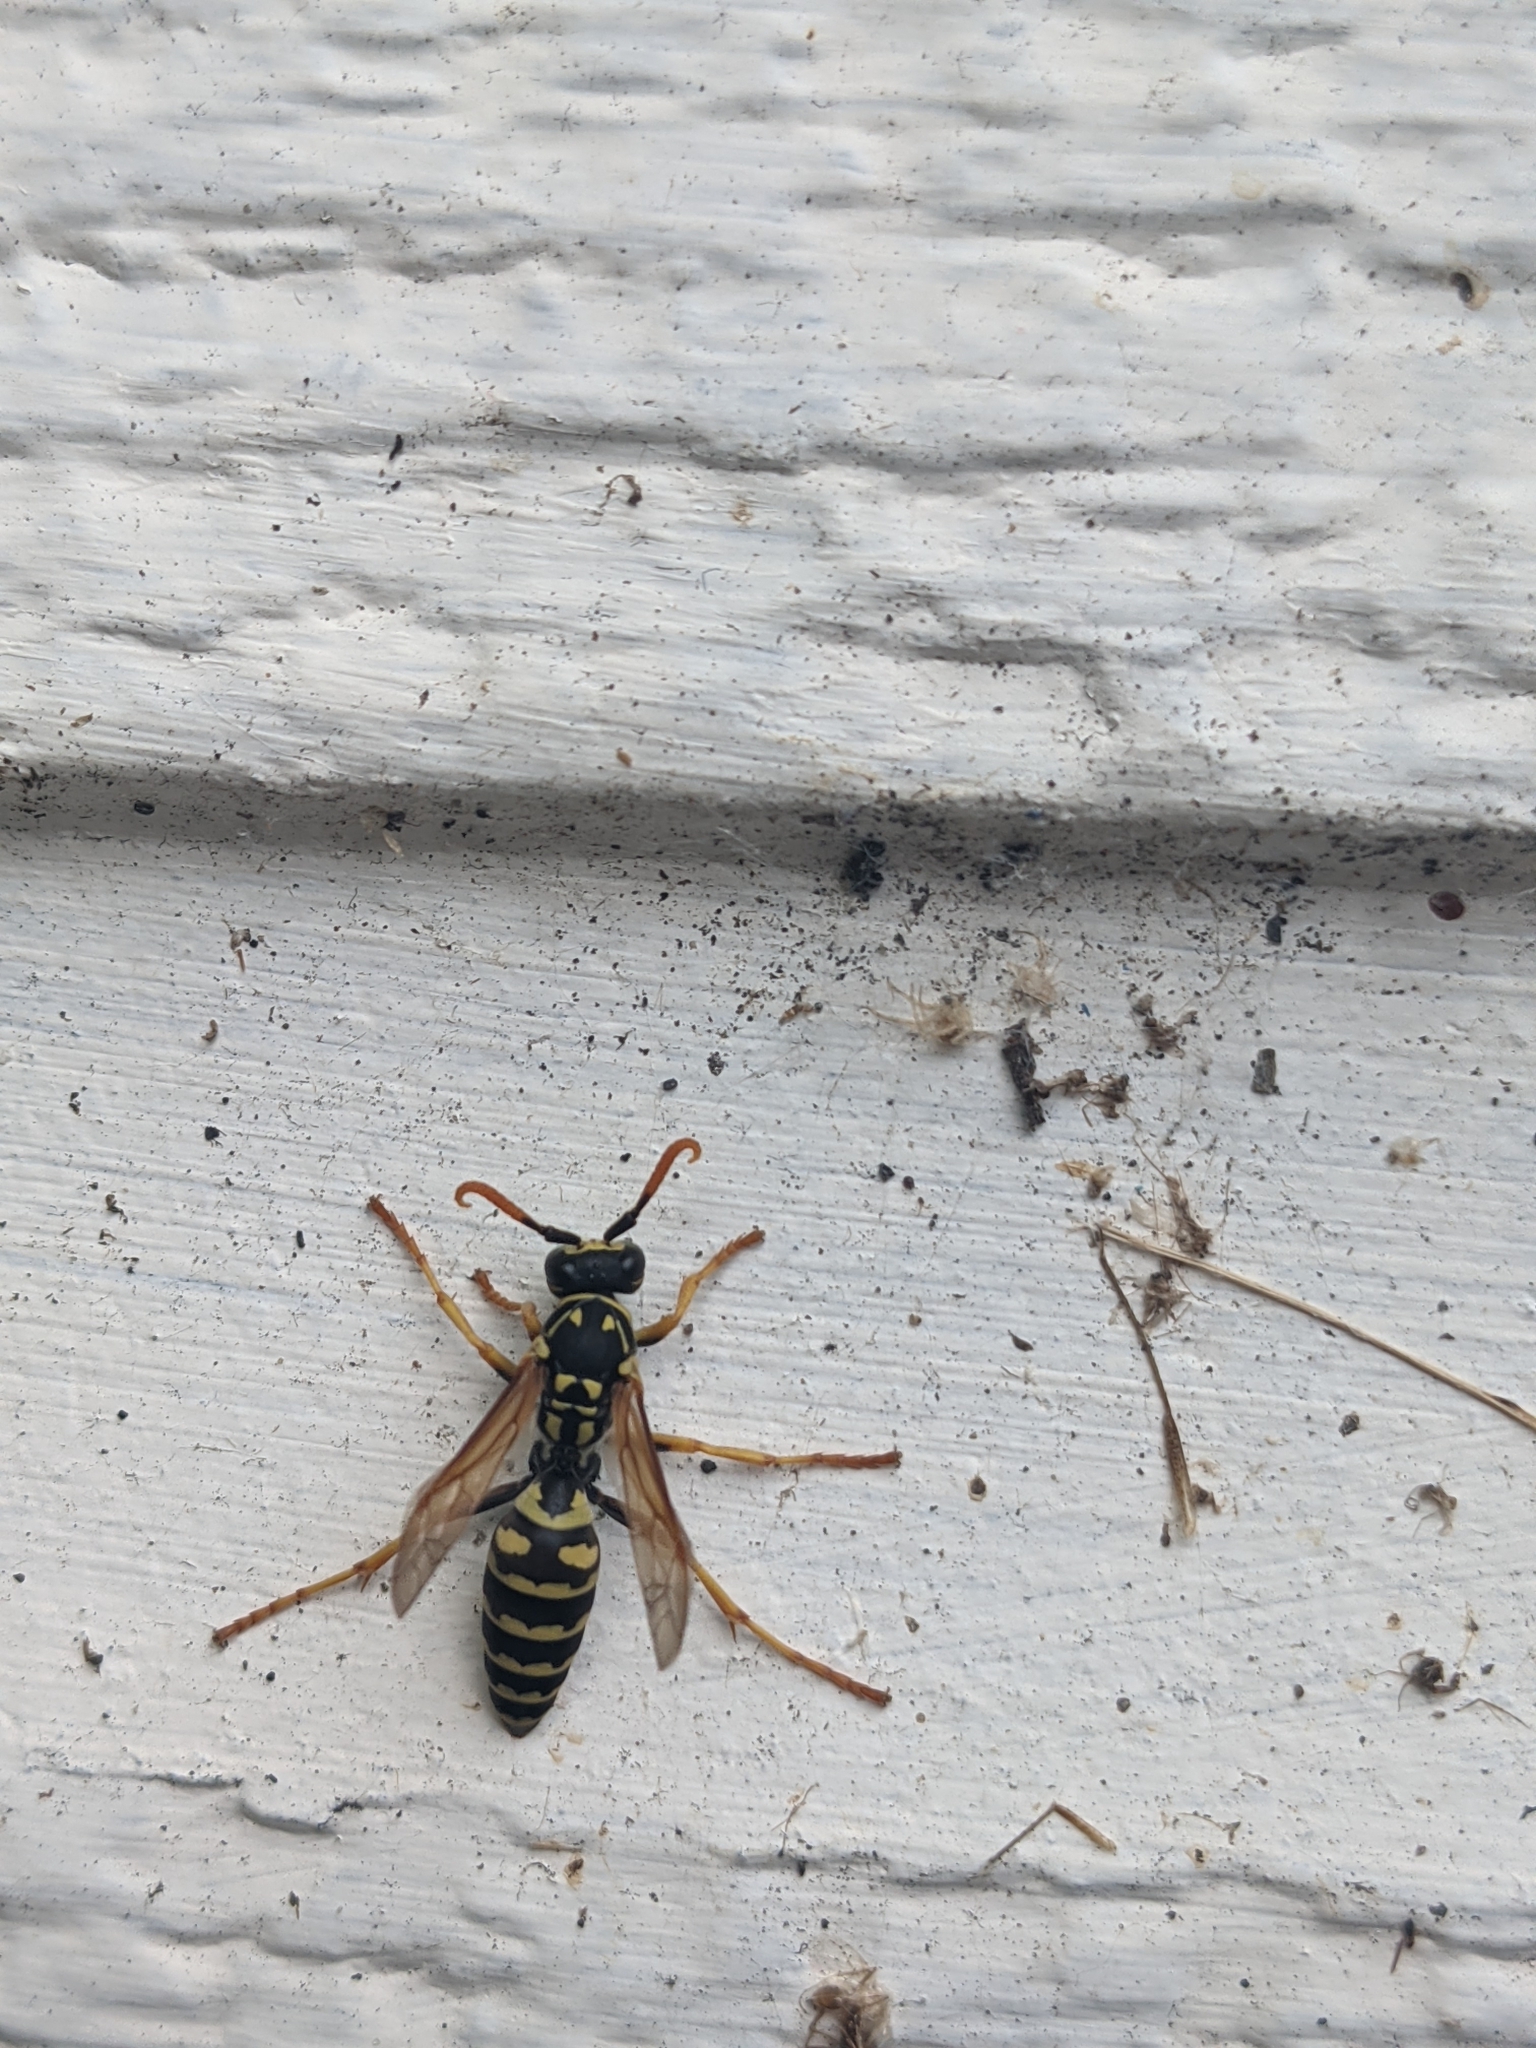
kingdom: Animalia
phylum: Arthropoda
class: Insecta
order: Hymenoptera
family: Eumenidae
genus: Polistes
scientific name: Polistes dominula
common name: Paper wasp
